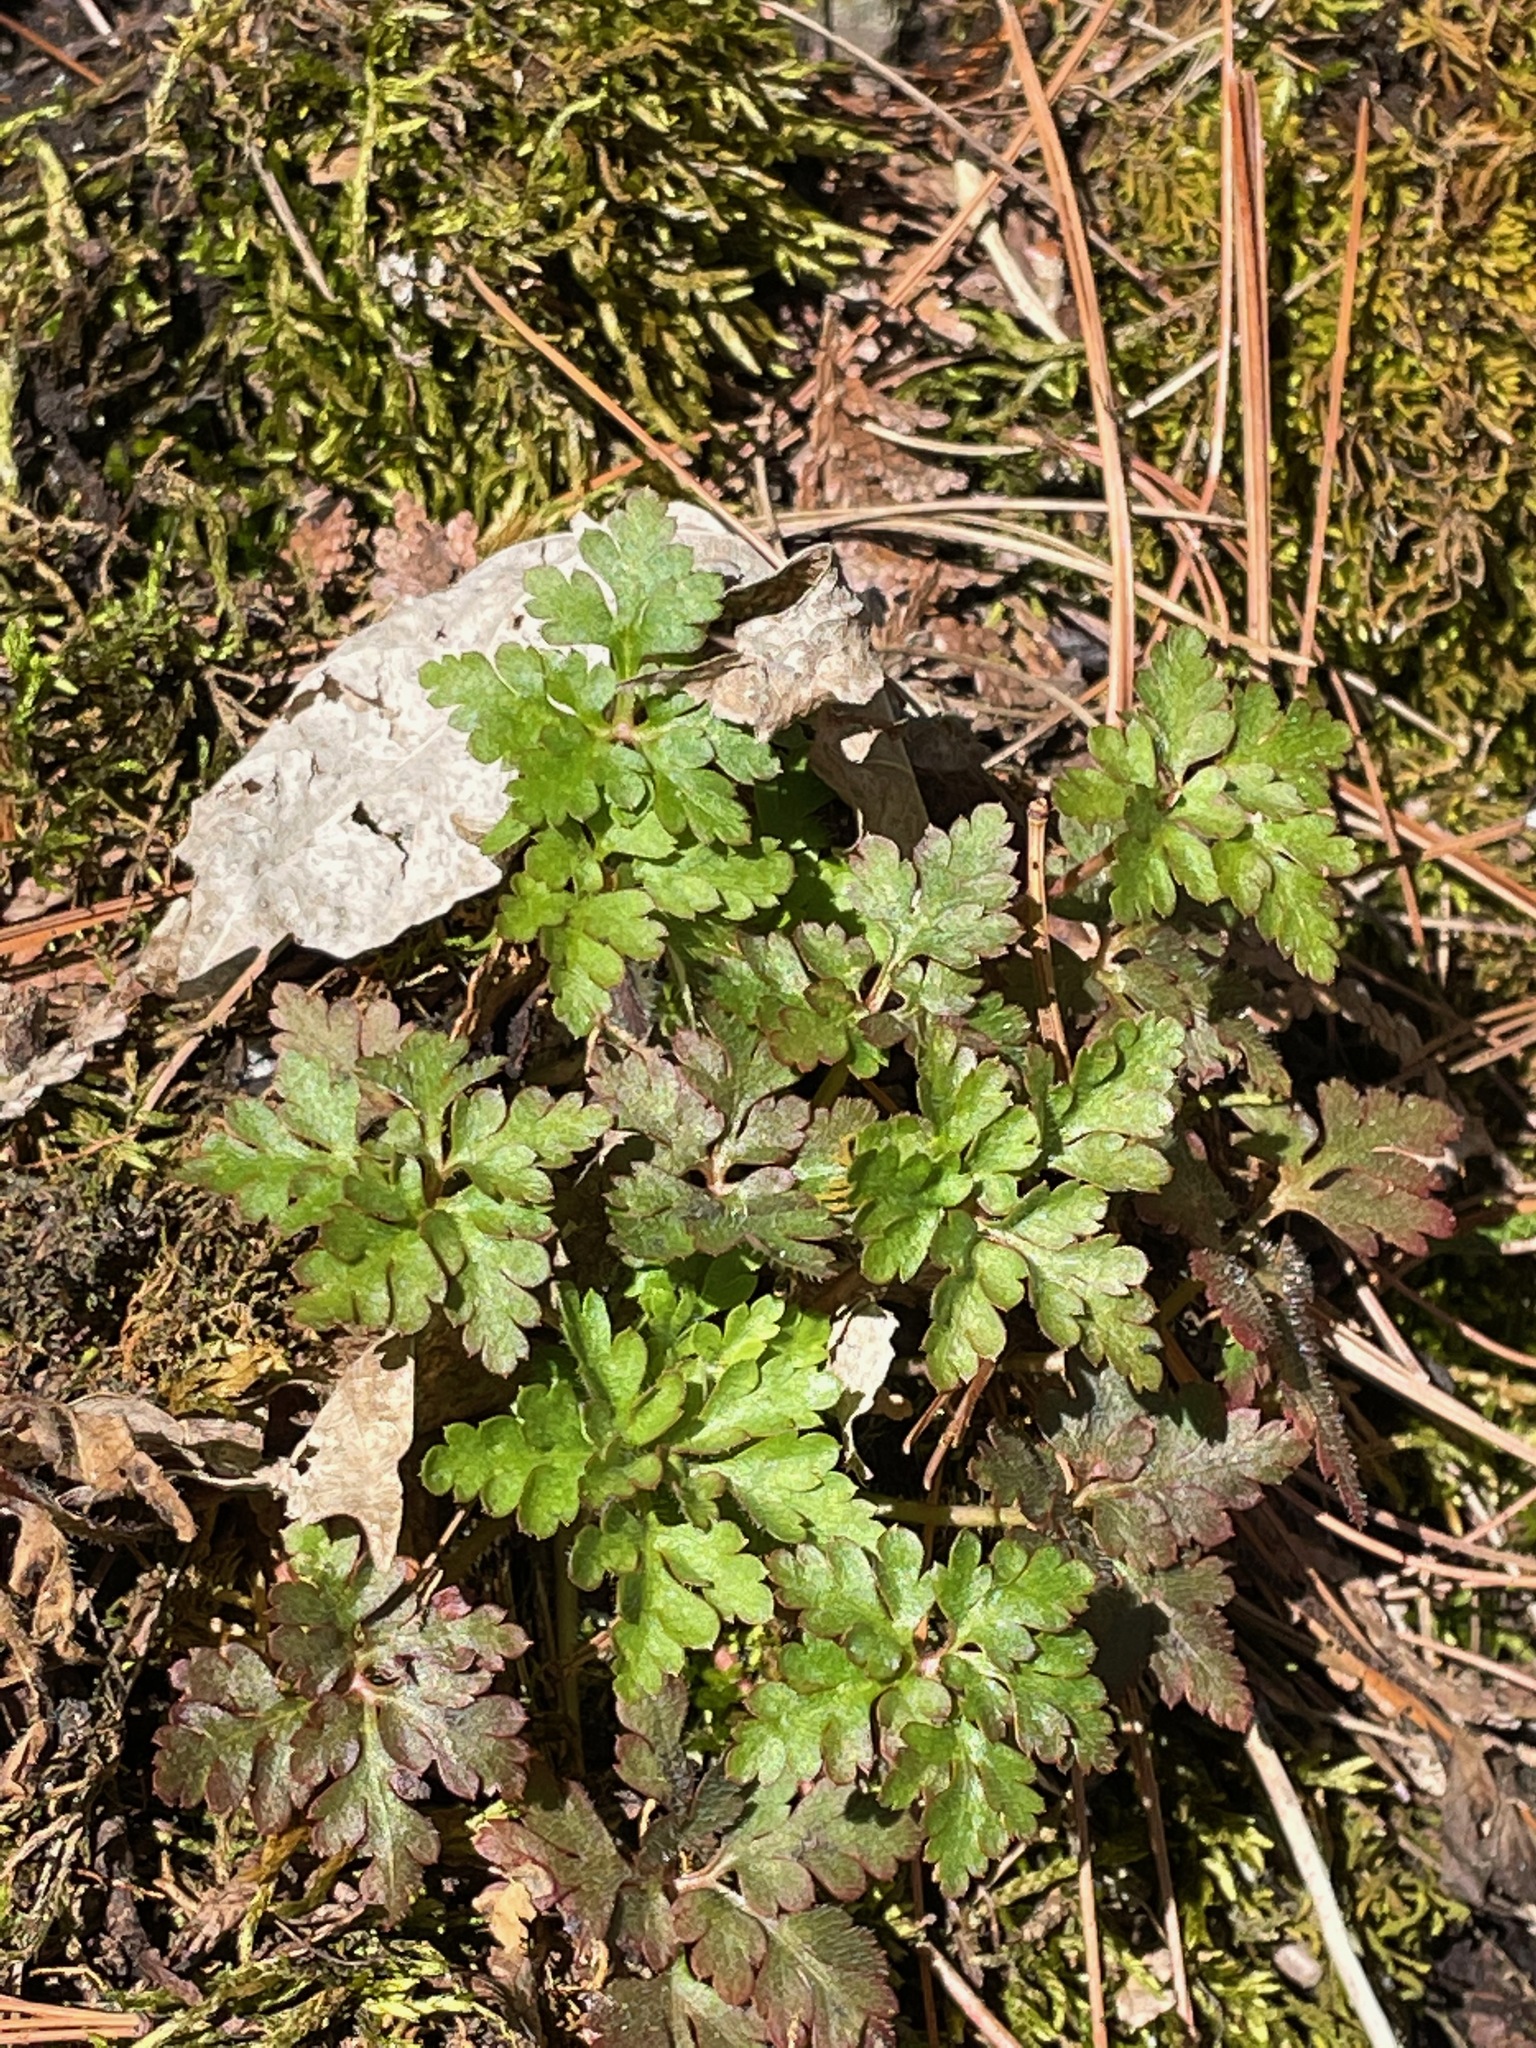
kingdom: Plantae
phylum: Tracheophyta
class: Magnoliopsida
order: Geraniales
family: Geraniaceae
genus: Geranium
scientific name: Geranium robertianum
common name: Herb-robert
